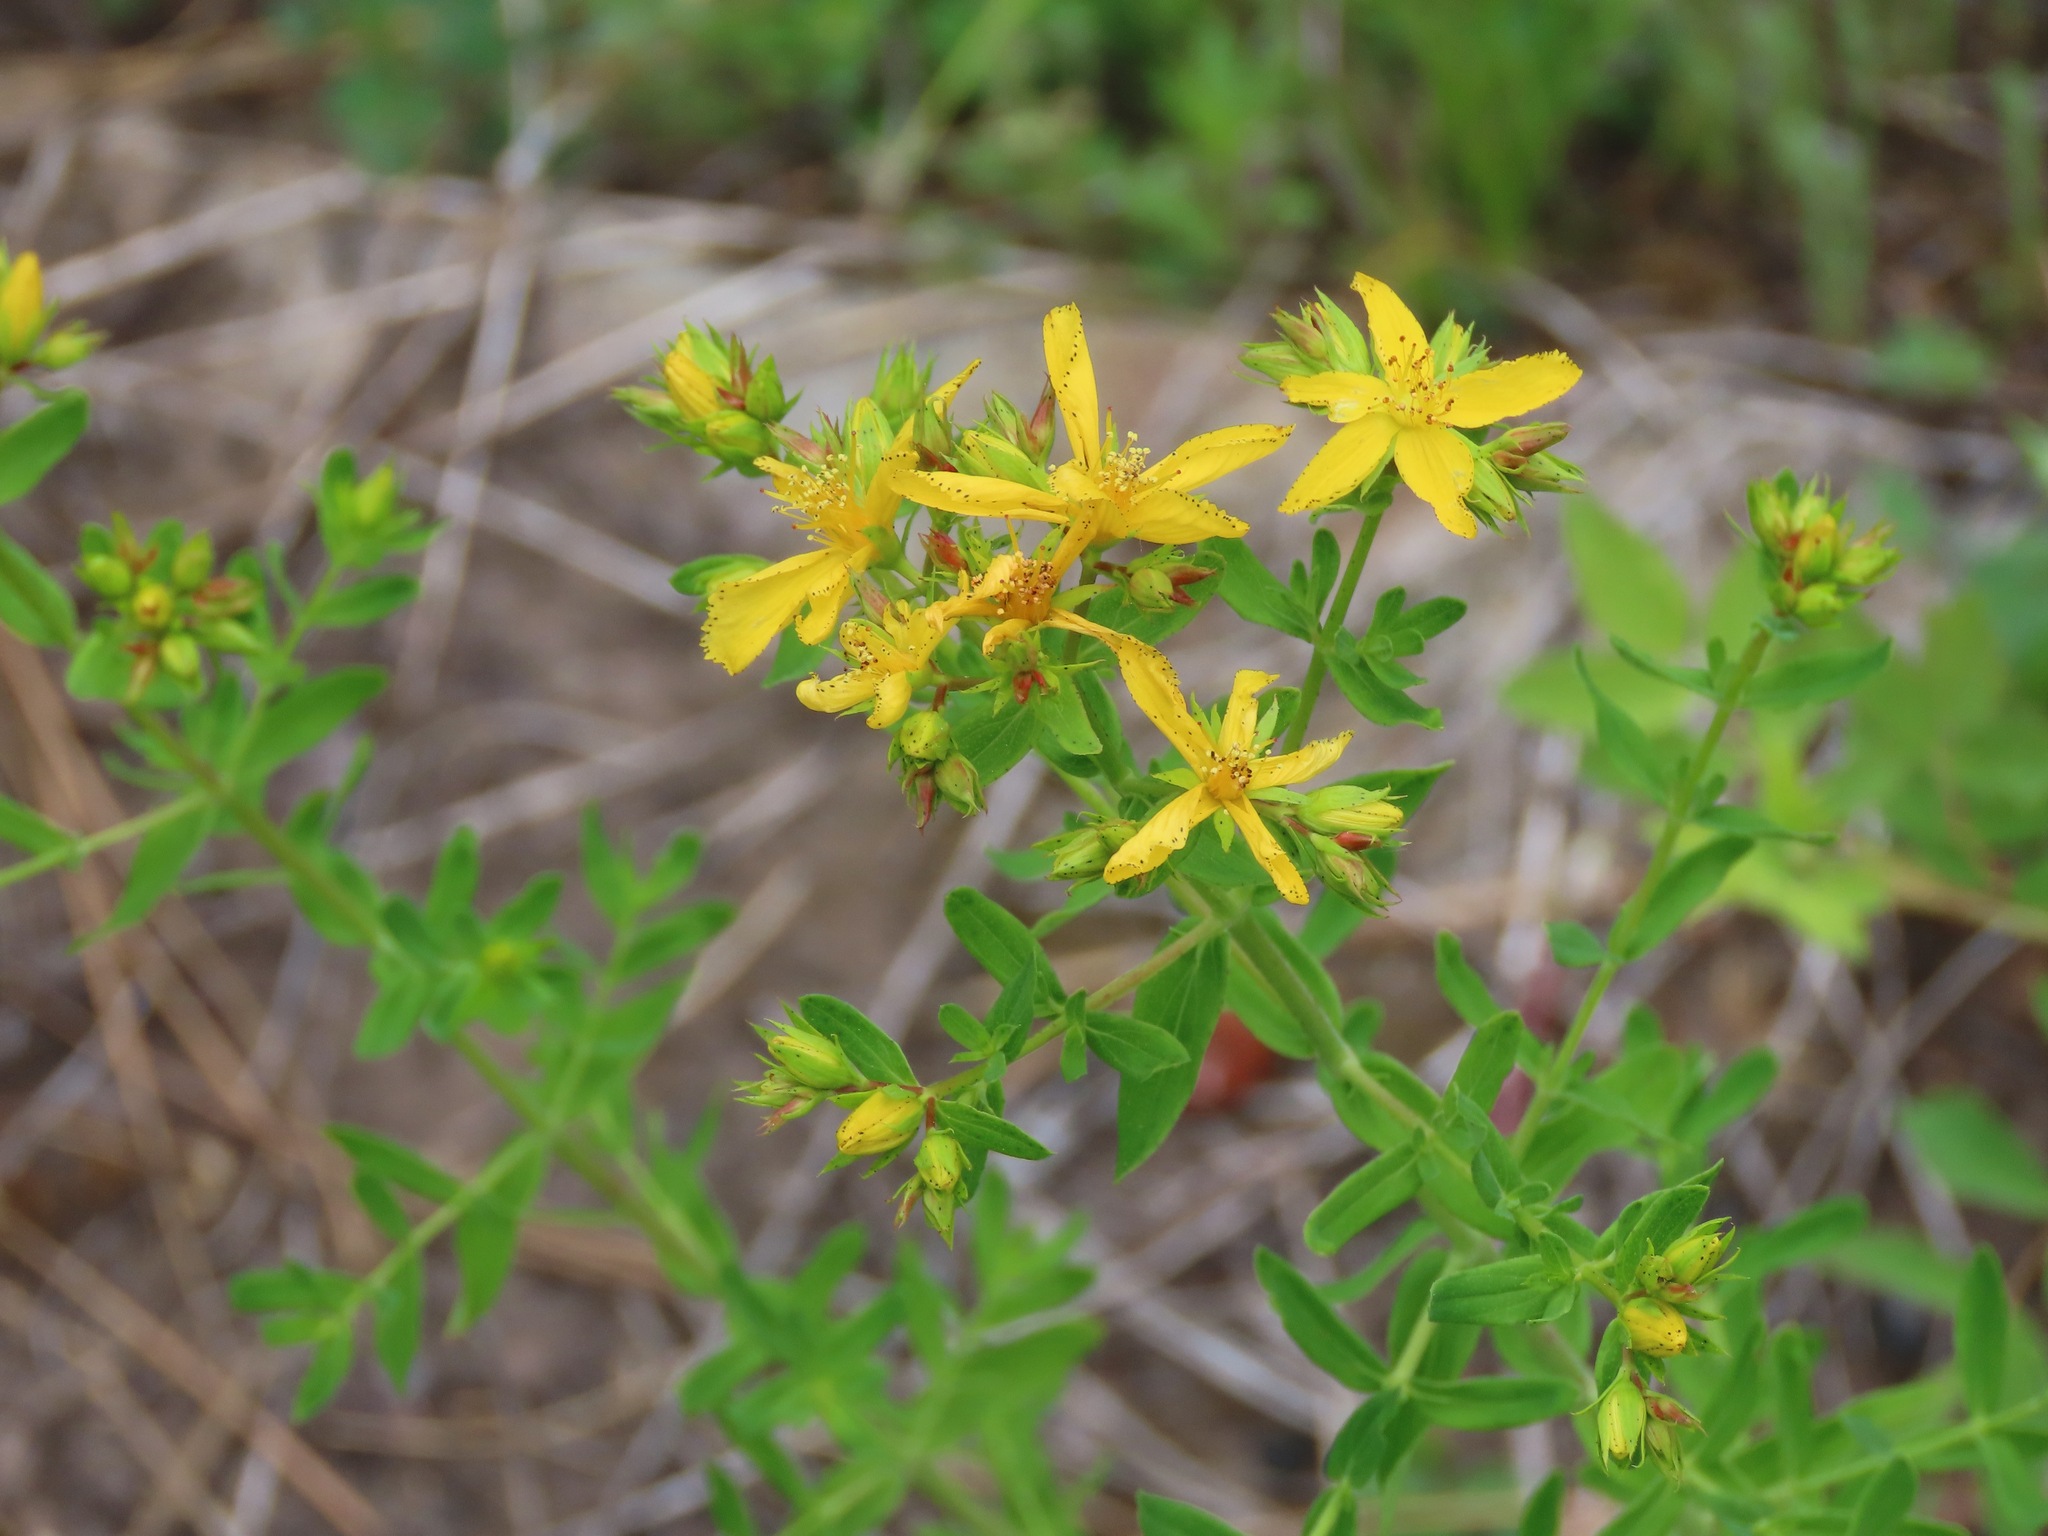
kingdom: Plantae
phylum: Tracheophyta
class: Magnoliopsida
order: Malpighiales
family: Hypericaceae
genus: Hypericum
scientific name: Hypericum perforatum
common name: Common st. johnswort
